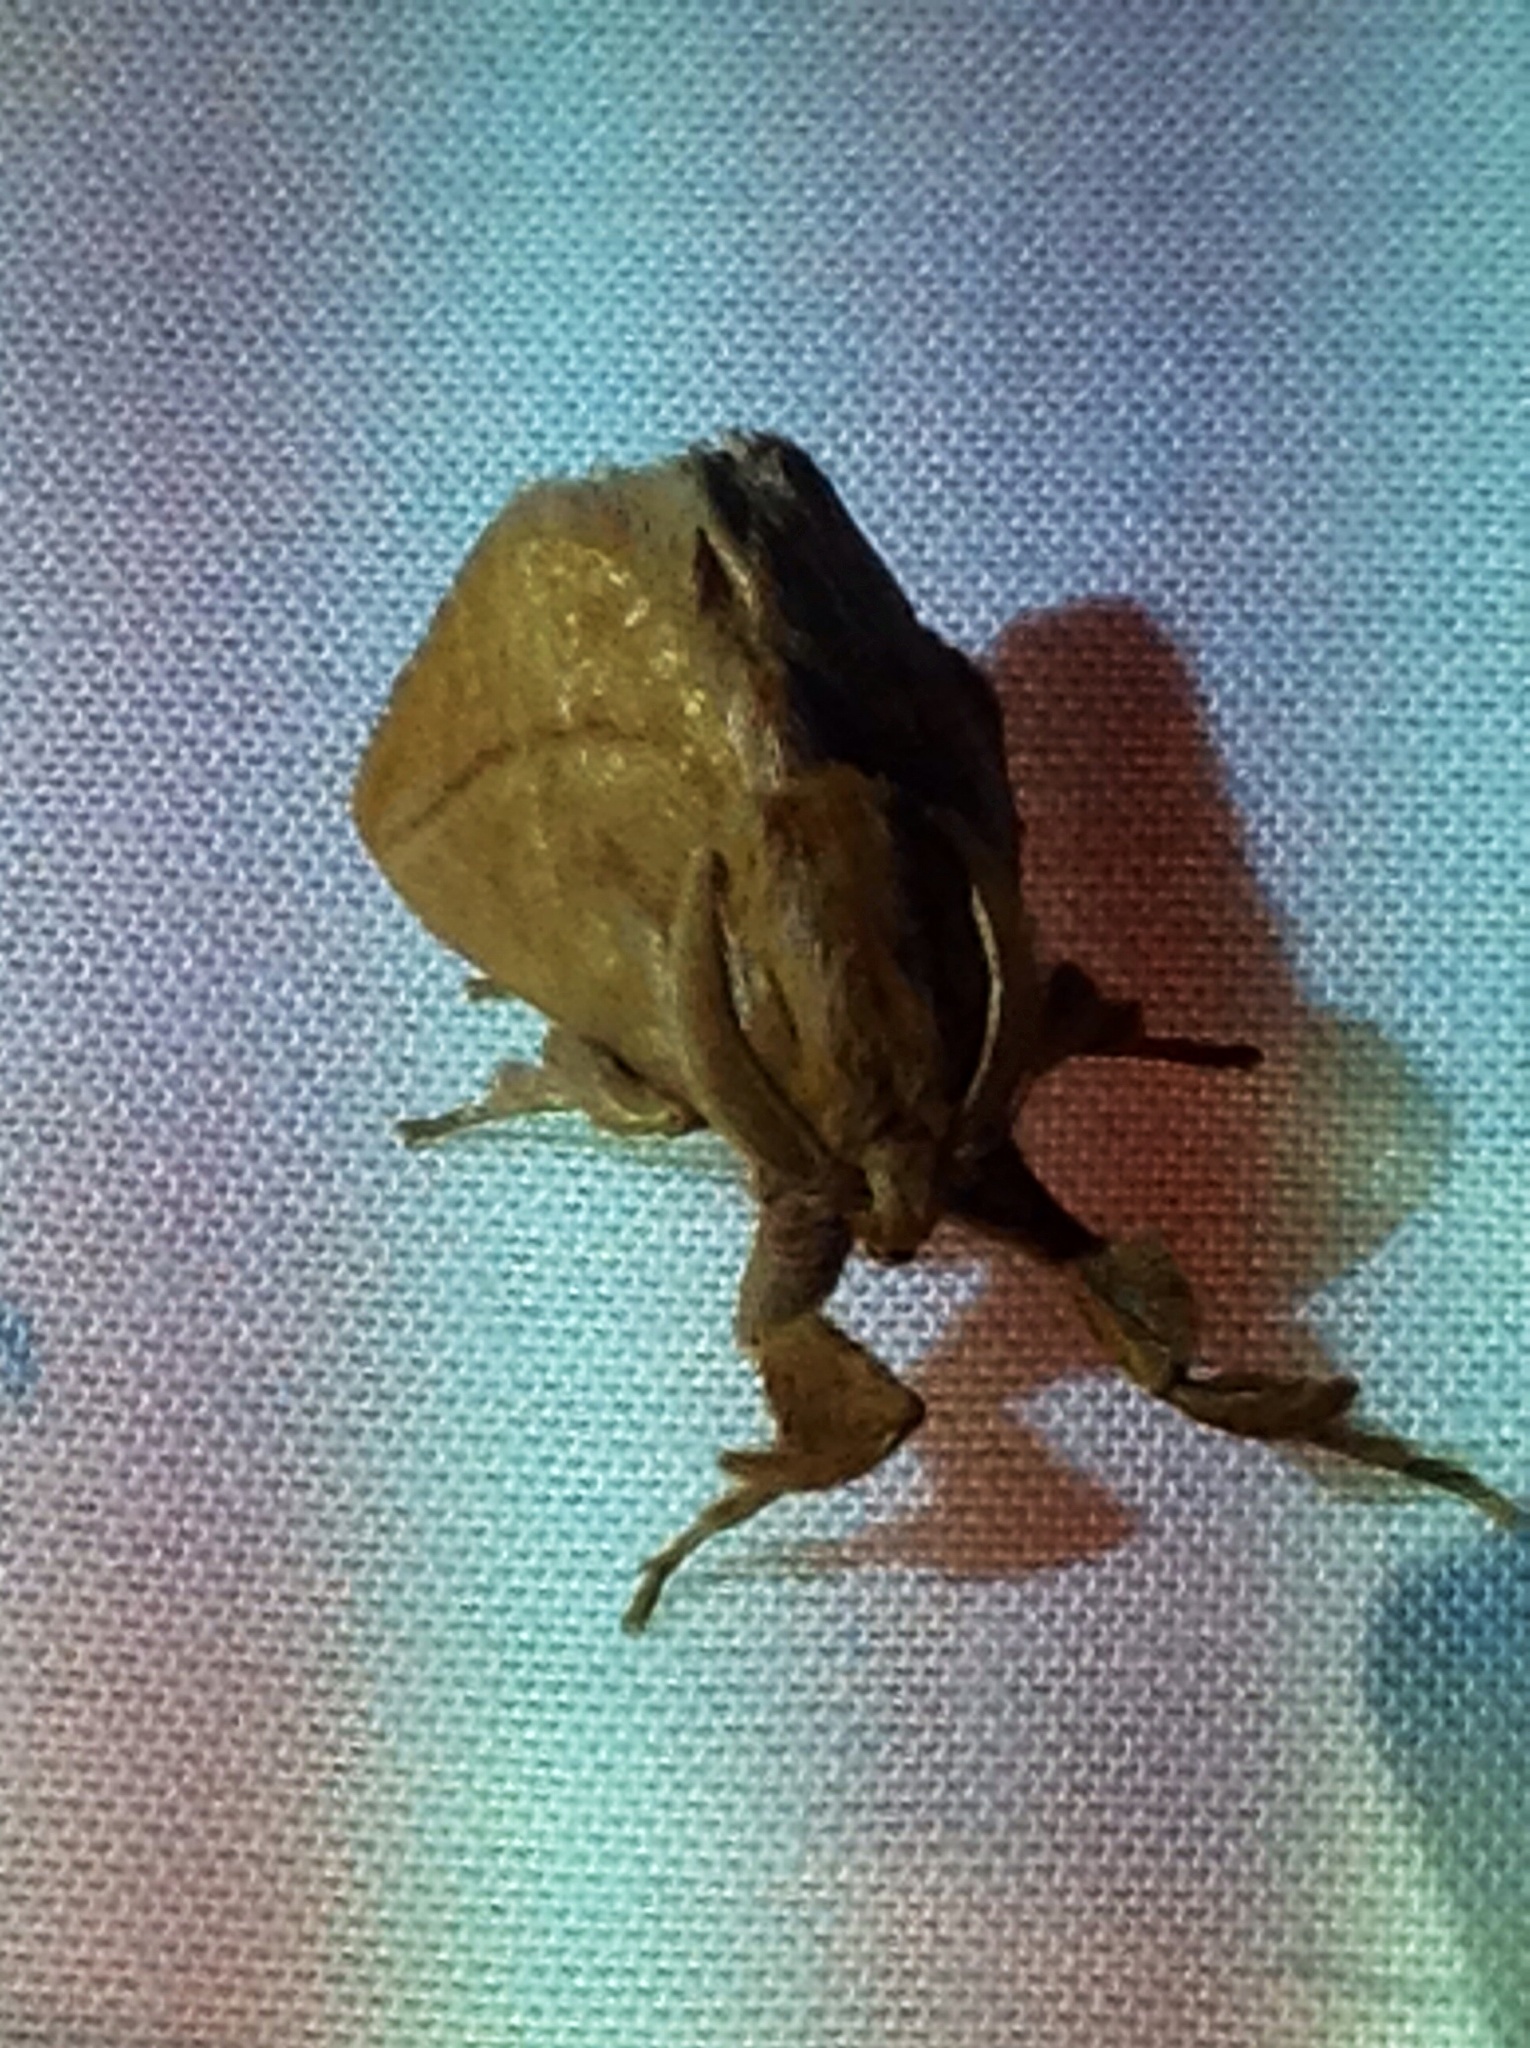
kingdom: Animalia
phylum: Arthropoda
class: Insecta
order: Lepidoptera
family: Limacodidae
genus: Perola
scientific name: Perola clara
